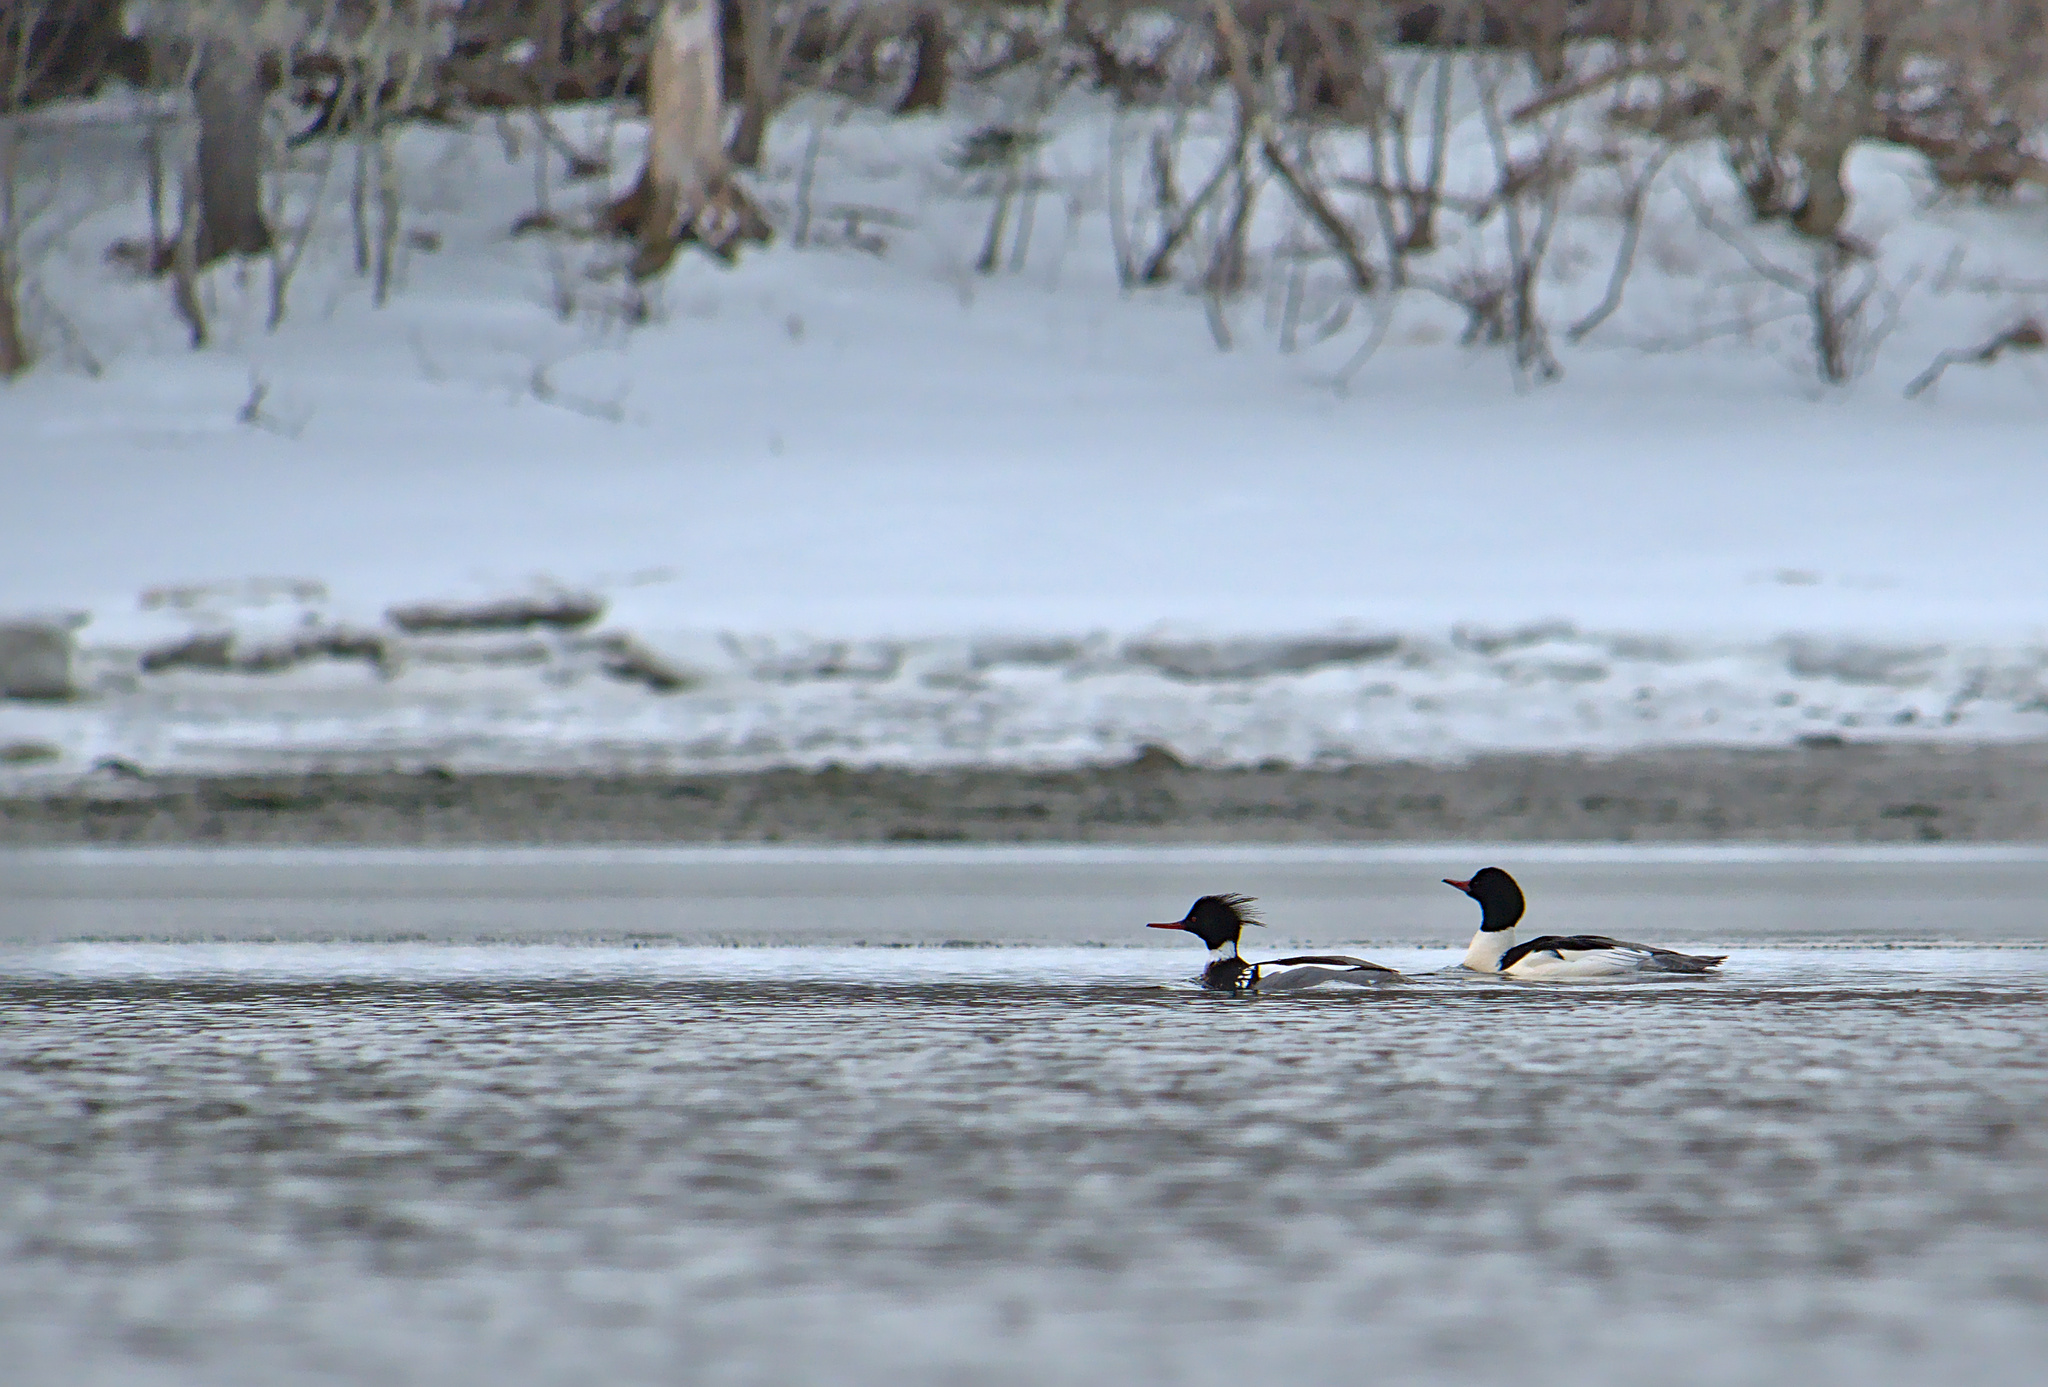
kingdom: Animalia
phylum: Chordata
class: Aves
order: Anseriformes
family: Anatidae
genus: Mergus
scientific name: Mergus merganser
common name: Common merganser
